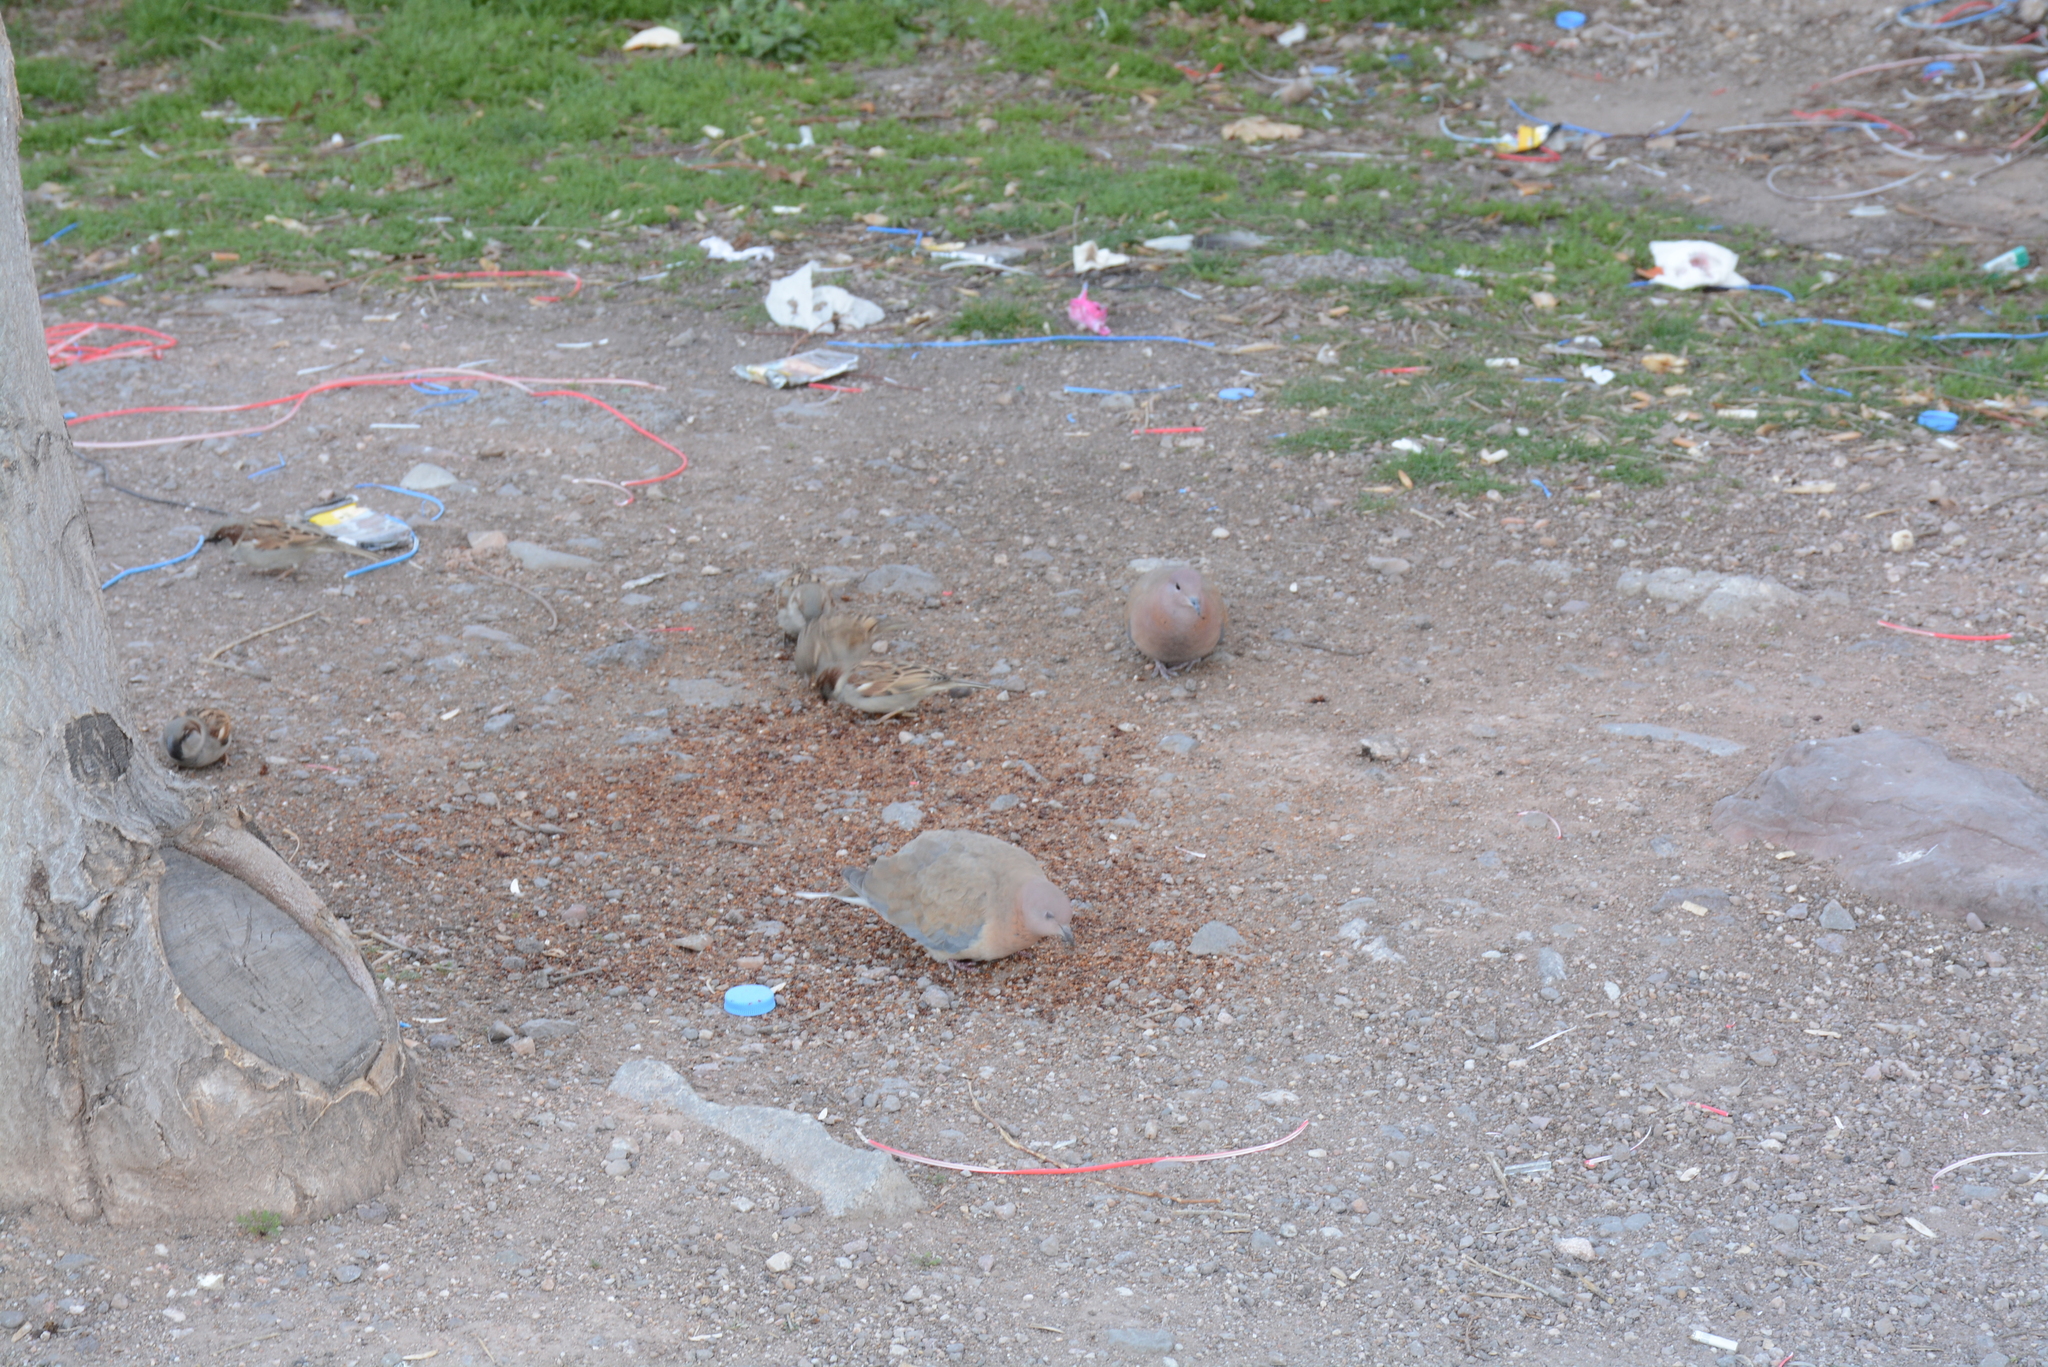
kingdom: Animalia
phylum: Chordata
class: Aves
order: Passeriformes
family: Passeridae
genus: Passer
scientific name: Passer domesticus
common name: House sparrow
